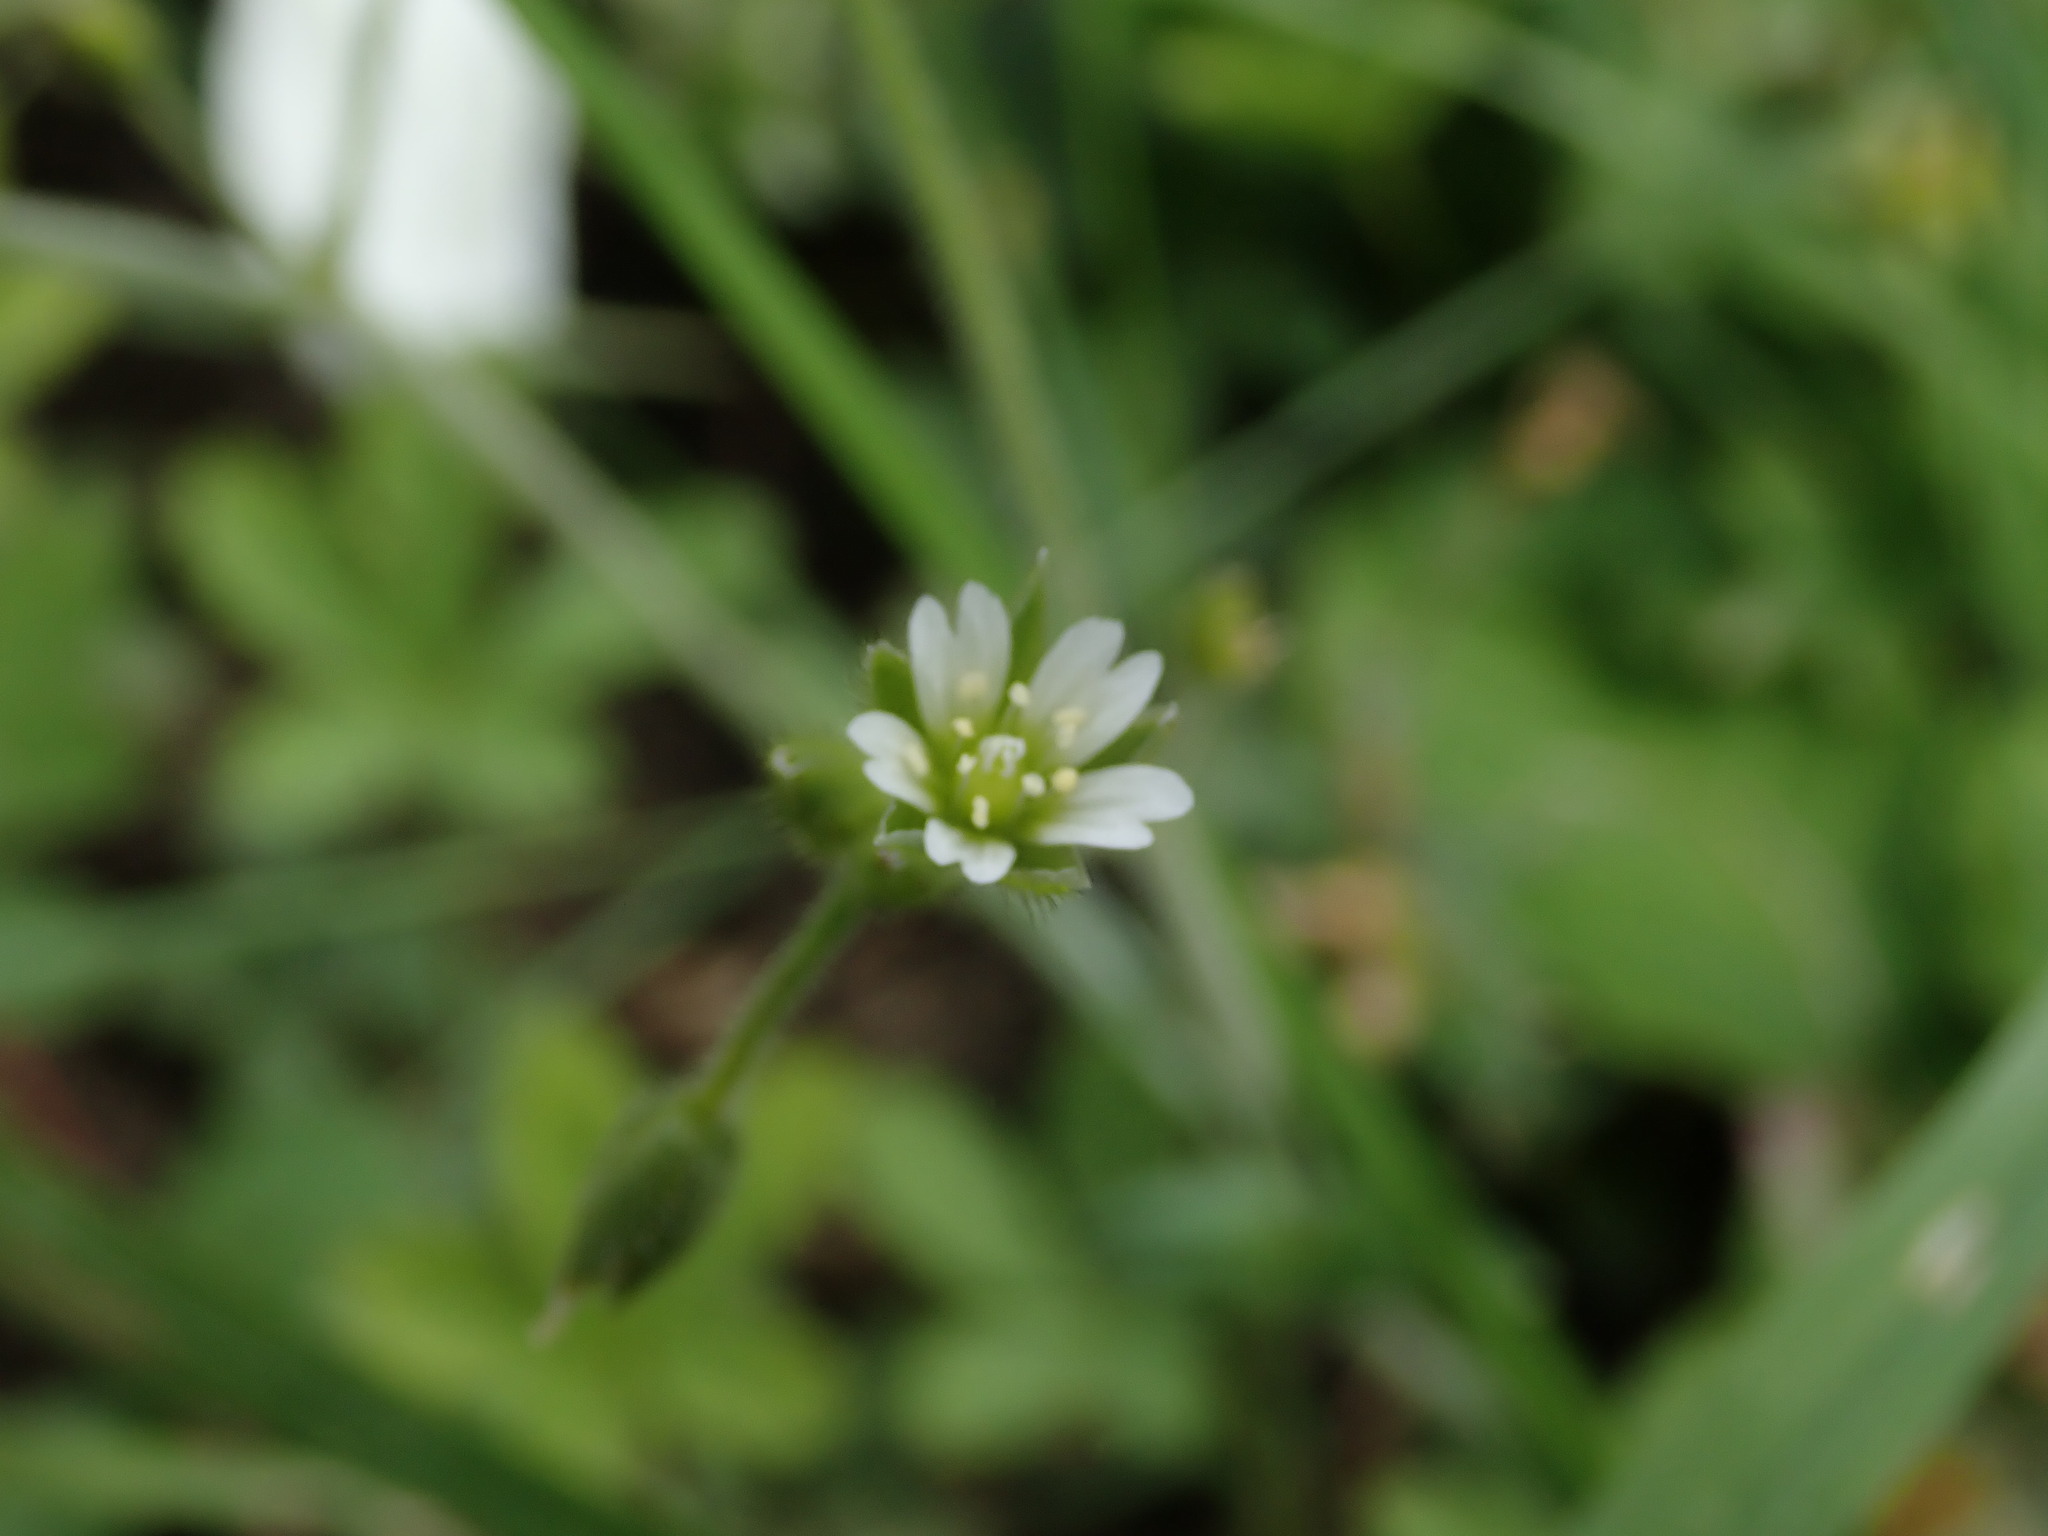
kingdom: Plantae
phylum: Tracheophyta
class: Magnoliopsida
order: Caryophyllales
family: Caryophyllaceae
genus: Cerastium
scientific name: Cerastium fontanum
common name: Common mouse-ear
